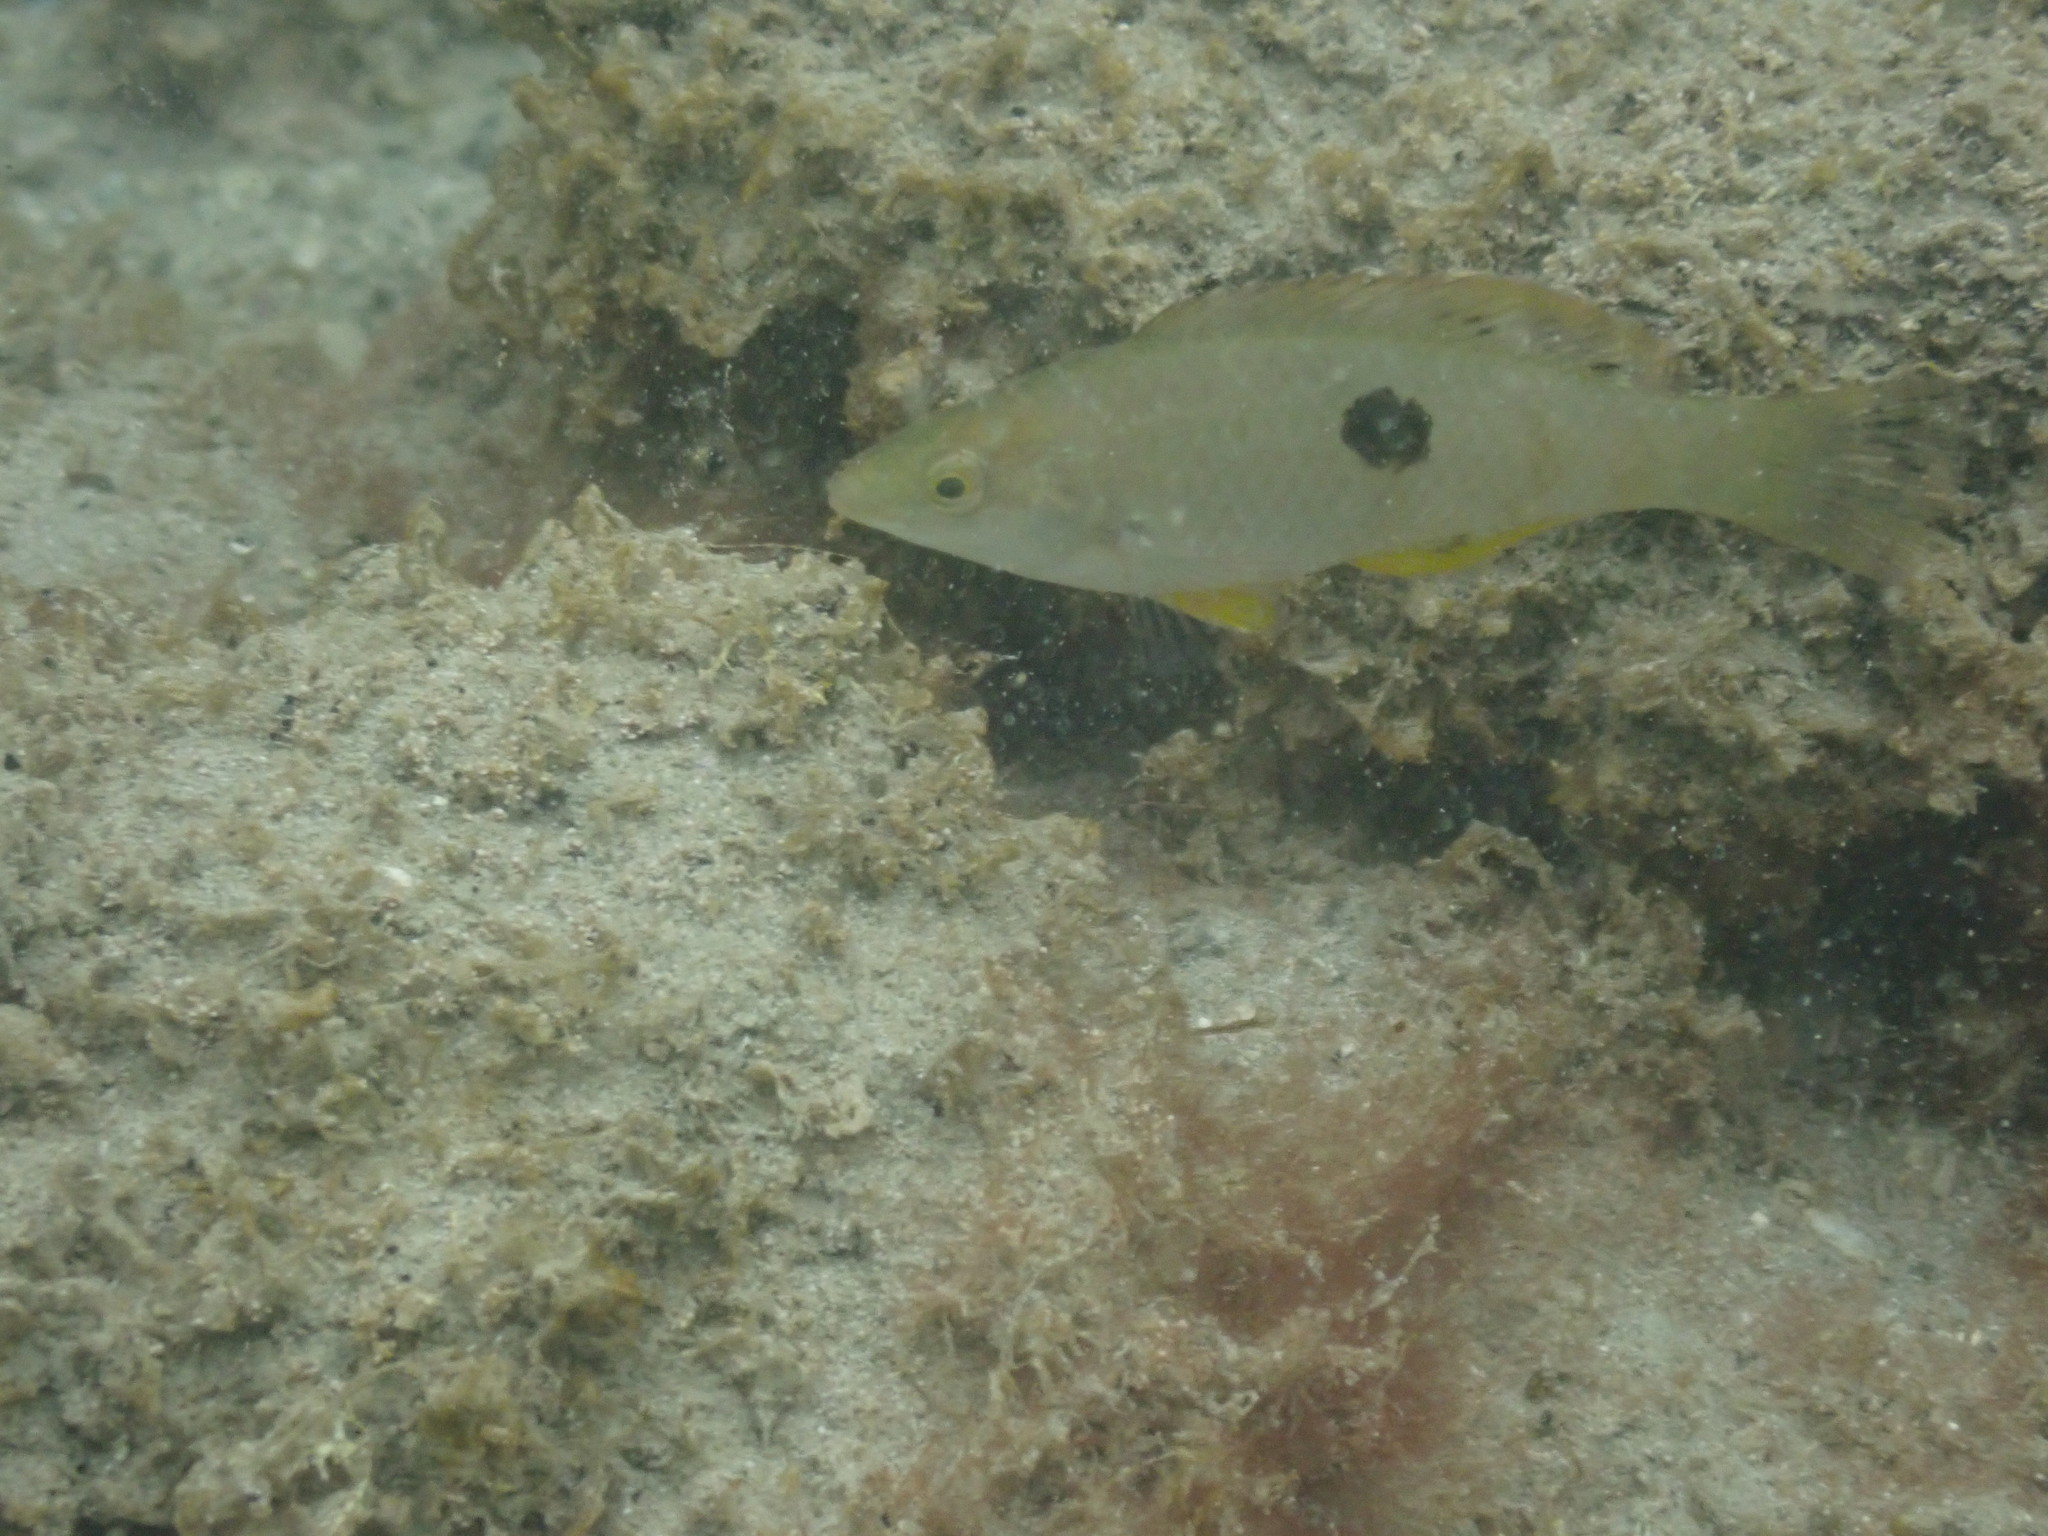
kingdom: Animalia
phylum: Chordata
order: Perciformes
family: Labridae
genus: Notolabrus
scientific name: Notolabrus celidotus
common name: Spotty
